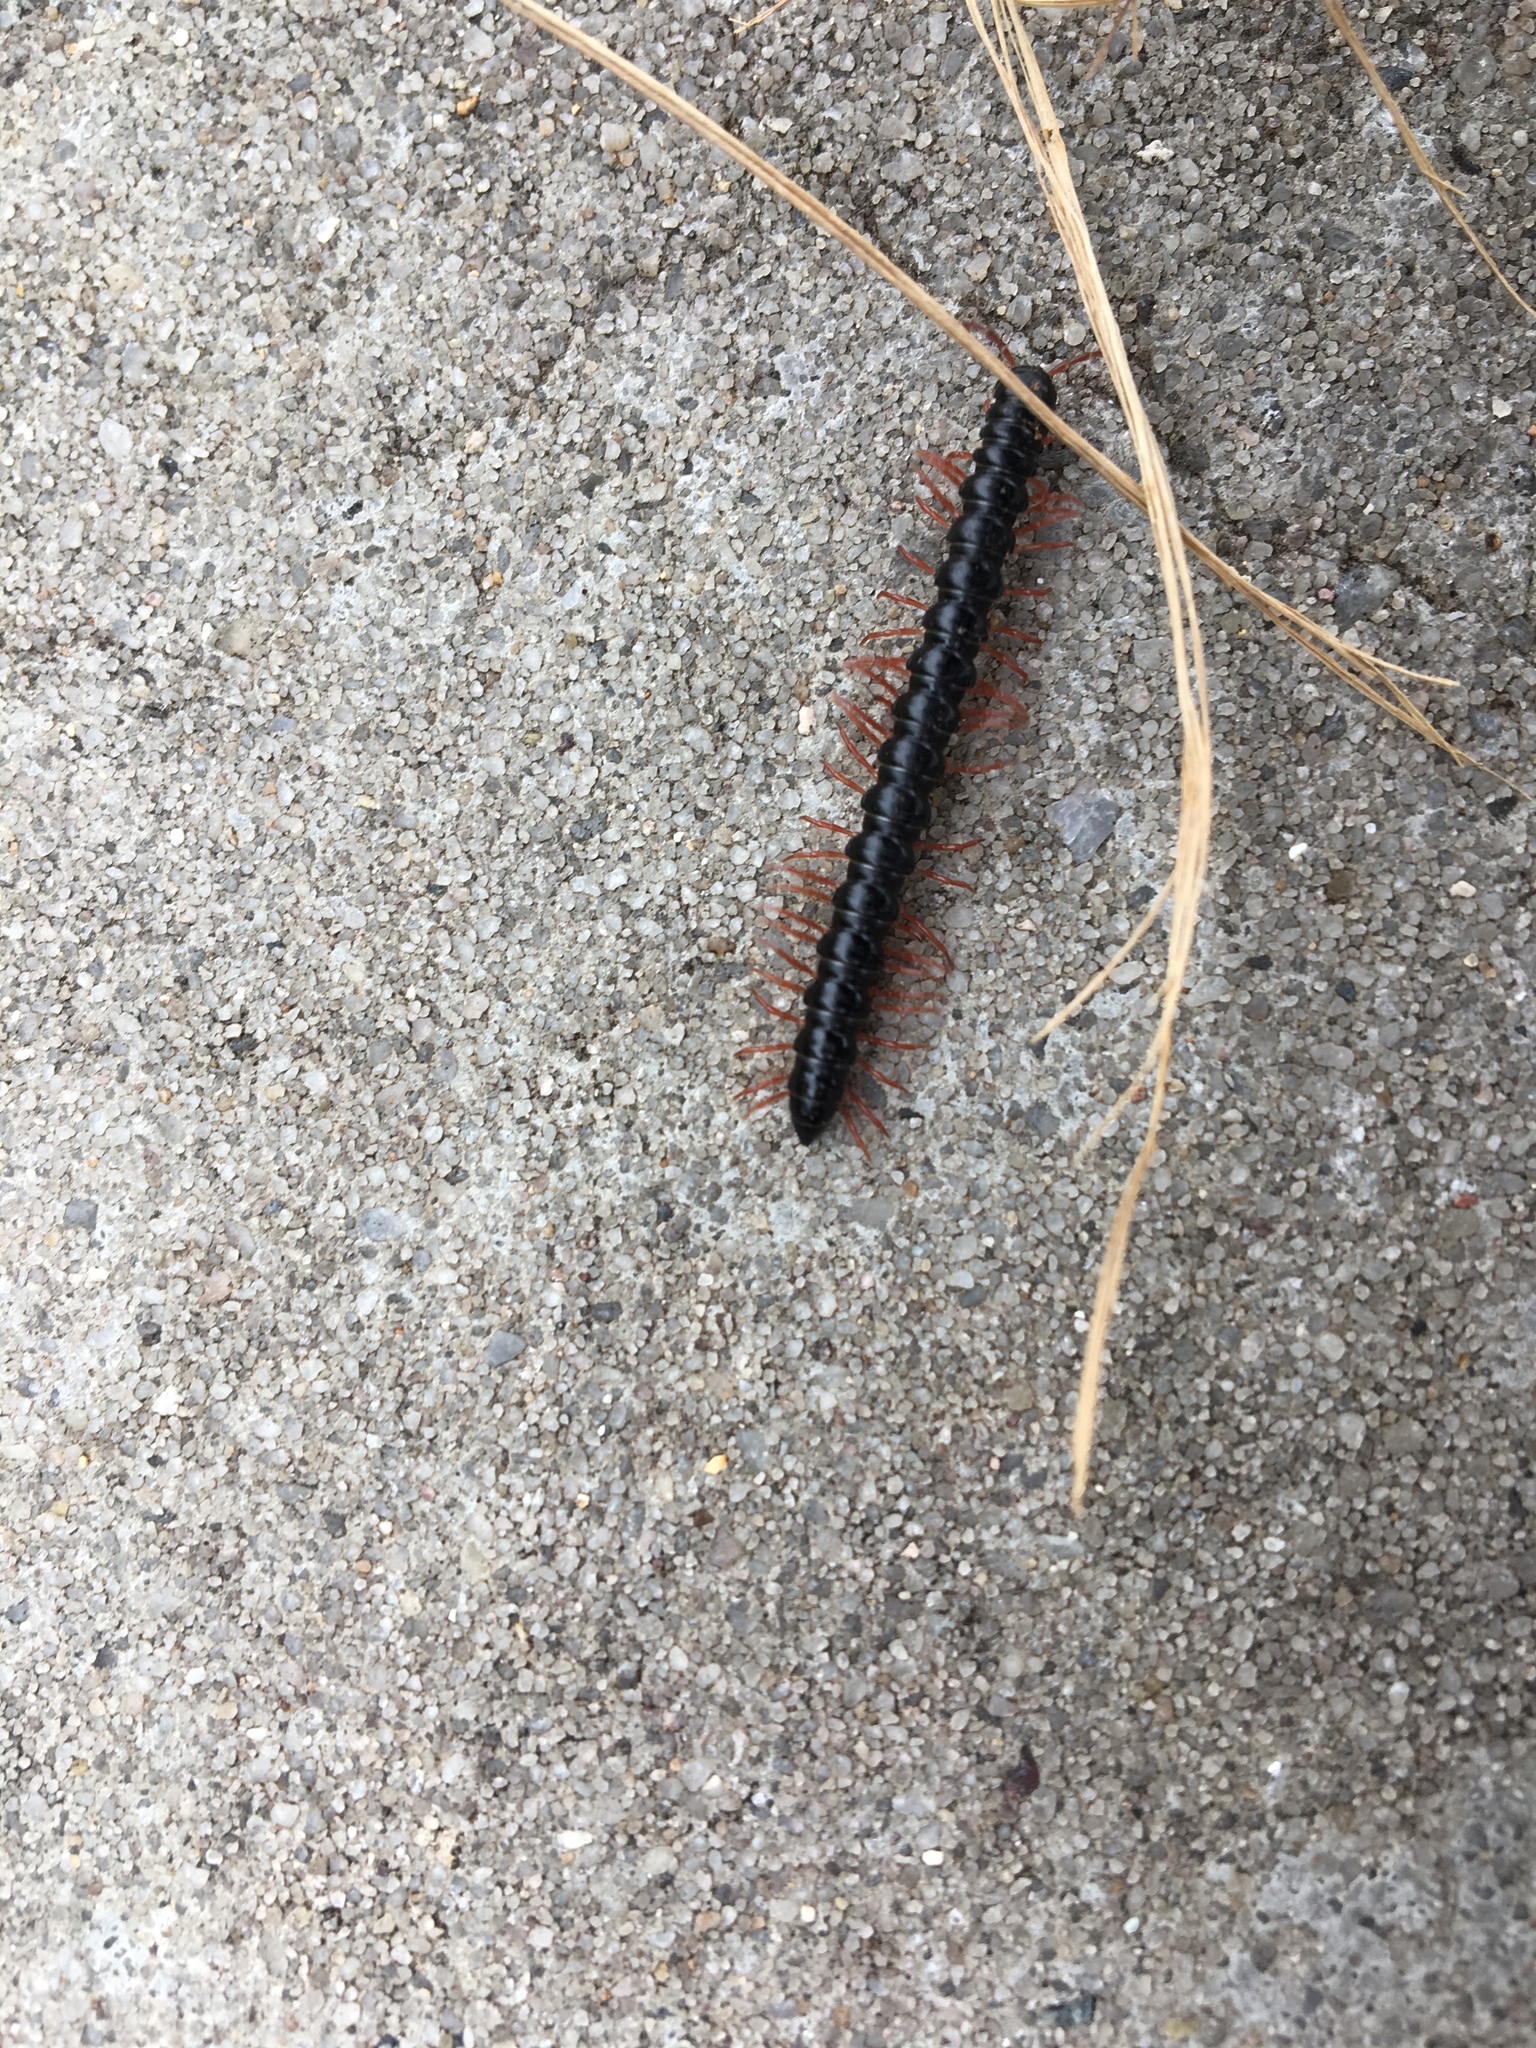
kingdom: Animalia
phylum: Arthropoda
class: Diplopoda
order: Polydesmida
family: Paradoxosomatidae
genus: Heterocladosoma
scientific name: Heterocladosoma
